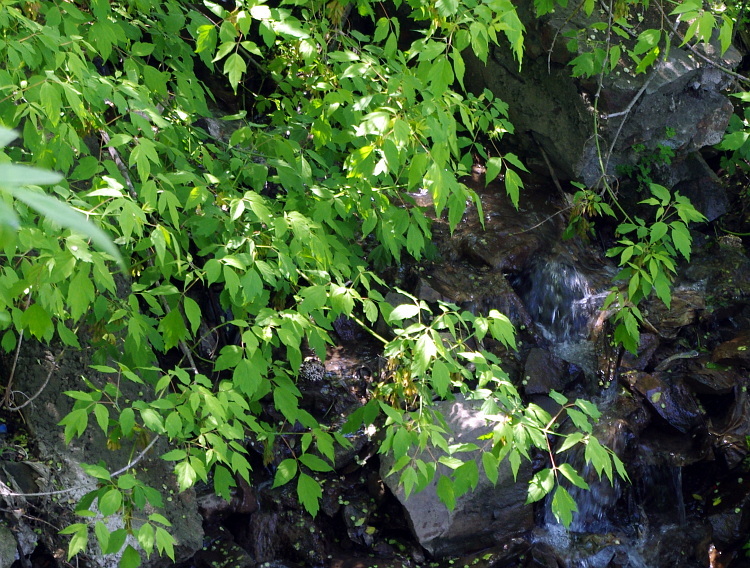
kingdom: Plantae
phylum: Tracheophyta
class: Magnoliopsida
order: Sapindales
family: Sapindaceae
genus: Acer
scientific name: Acer negundo
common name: Ashleaf maple
